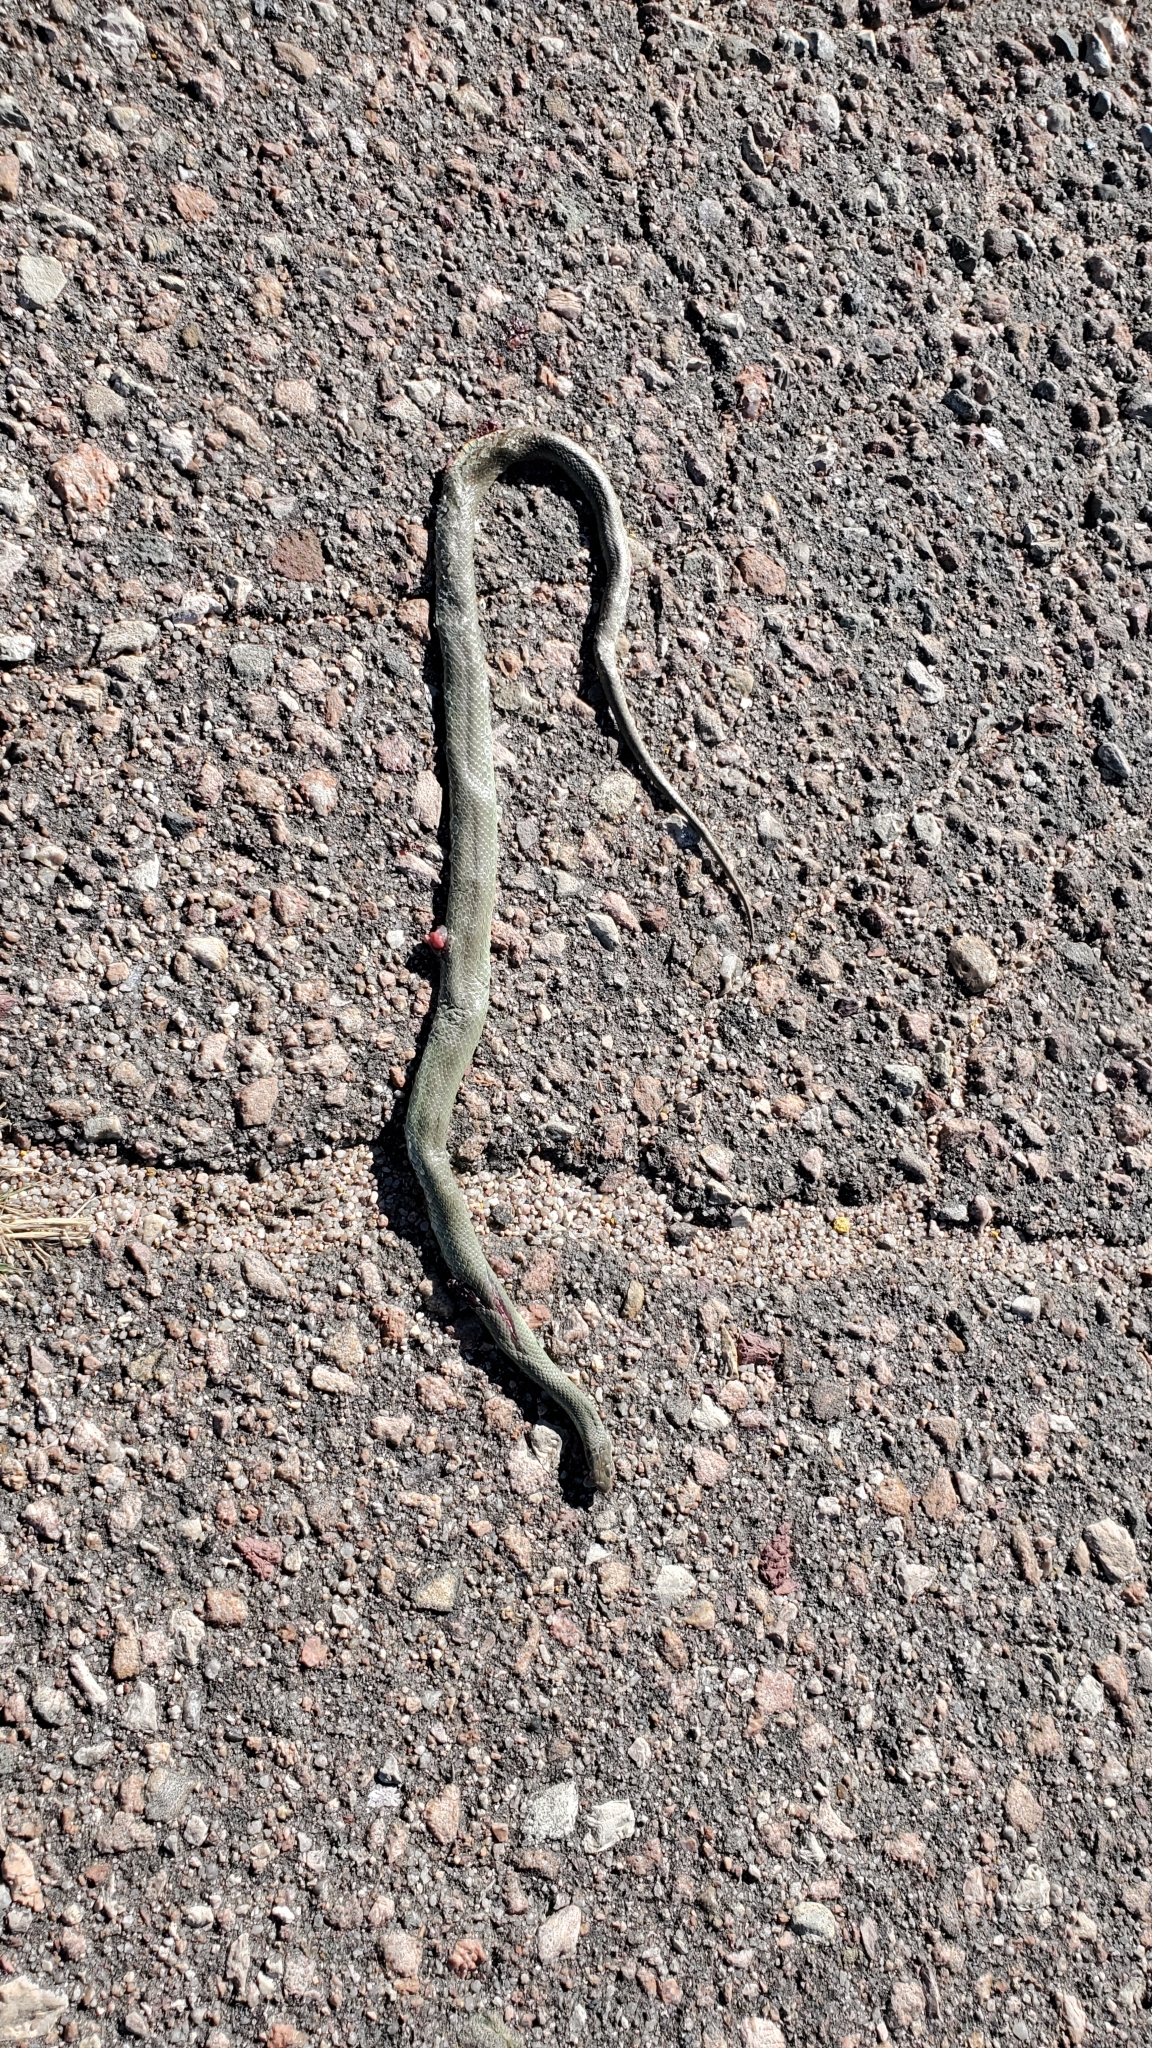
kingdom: Animalia
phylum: Chordata
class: Squamata
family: Colubridae
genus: Coluber
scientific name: Coluber constrictor
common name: Eastern racer
